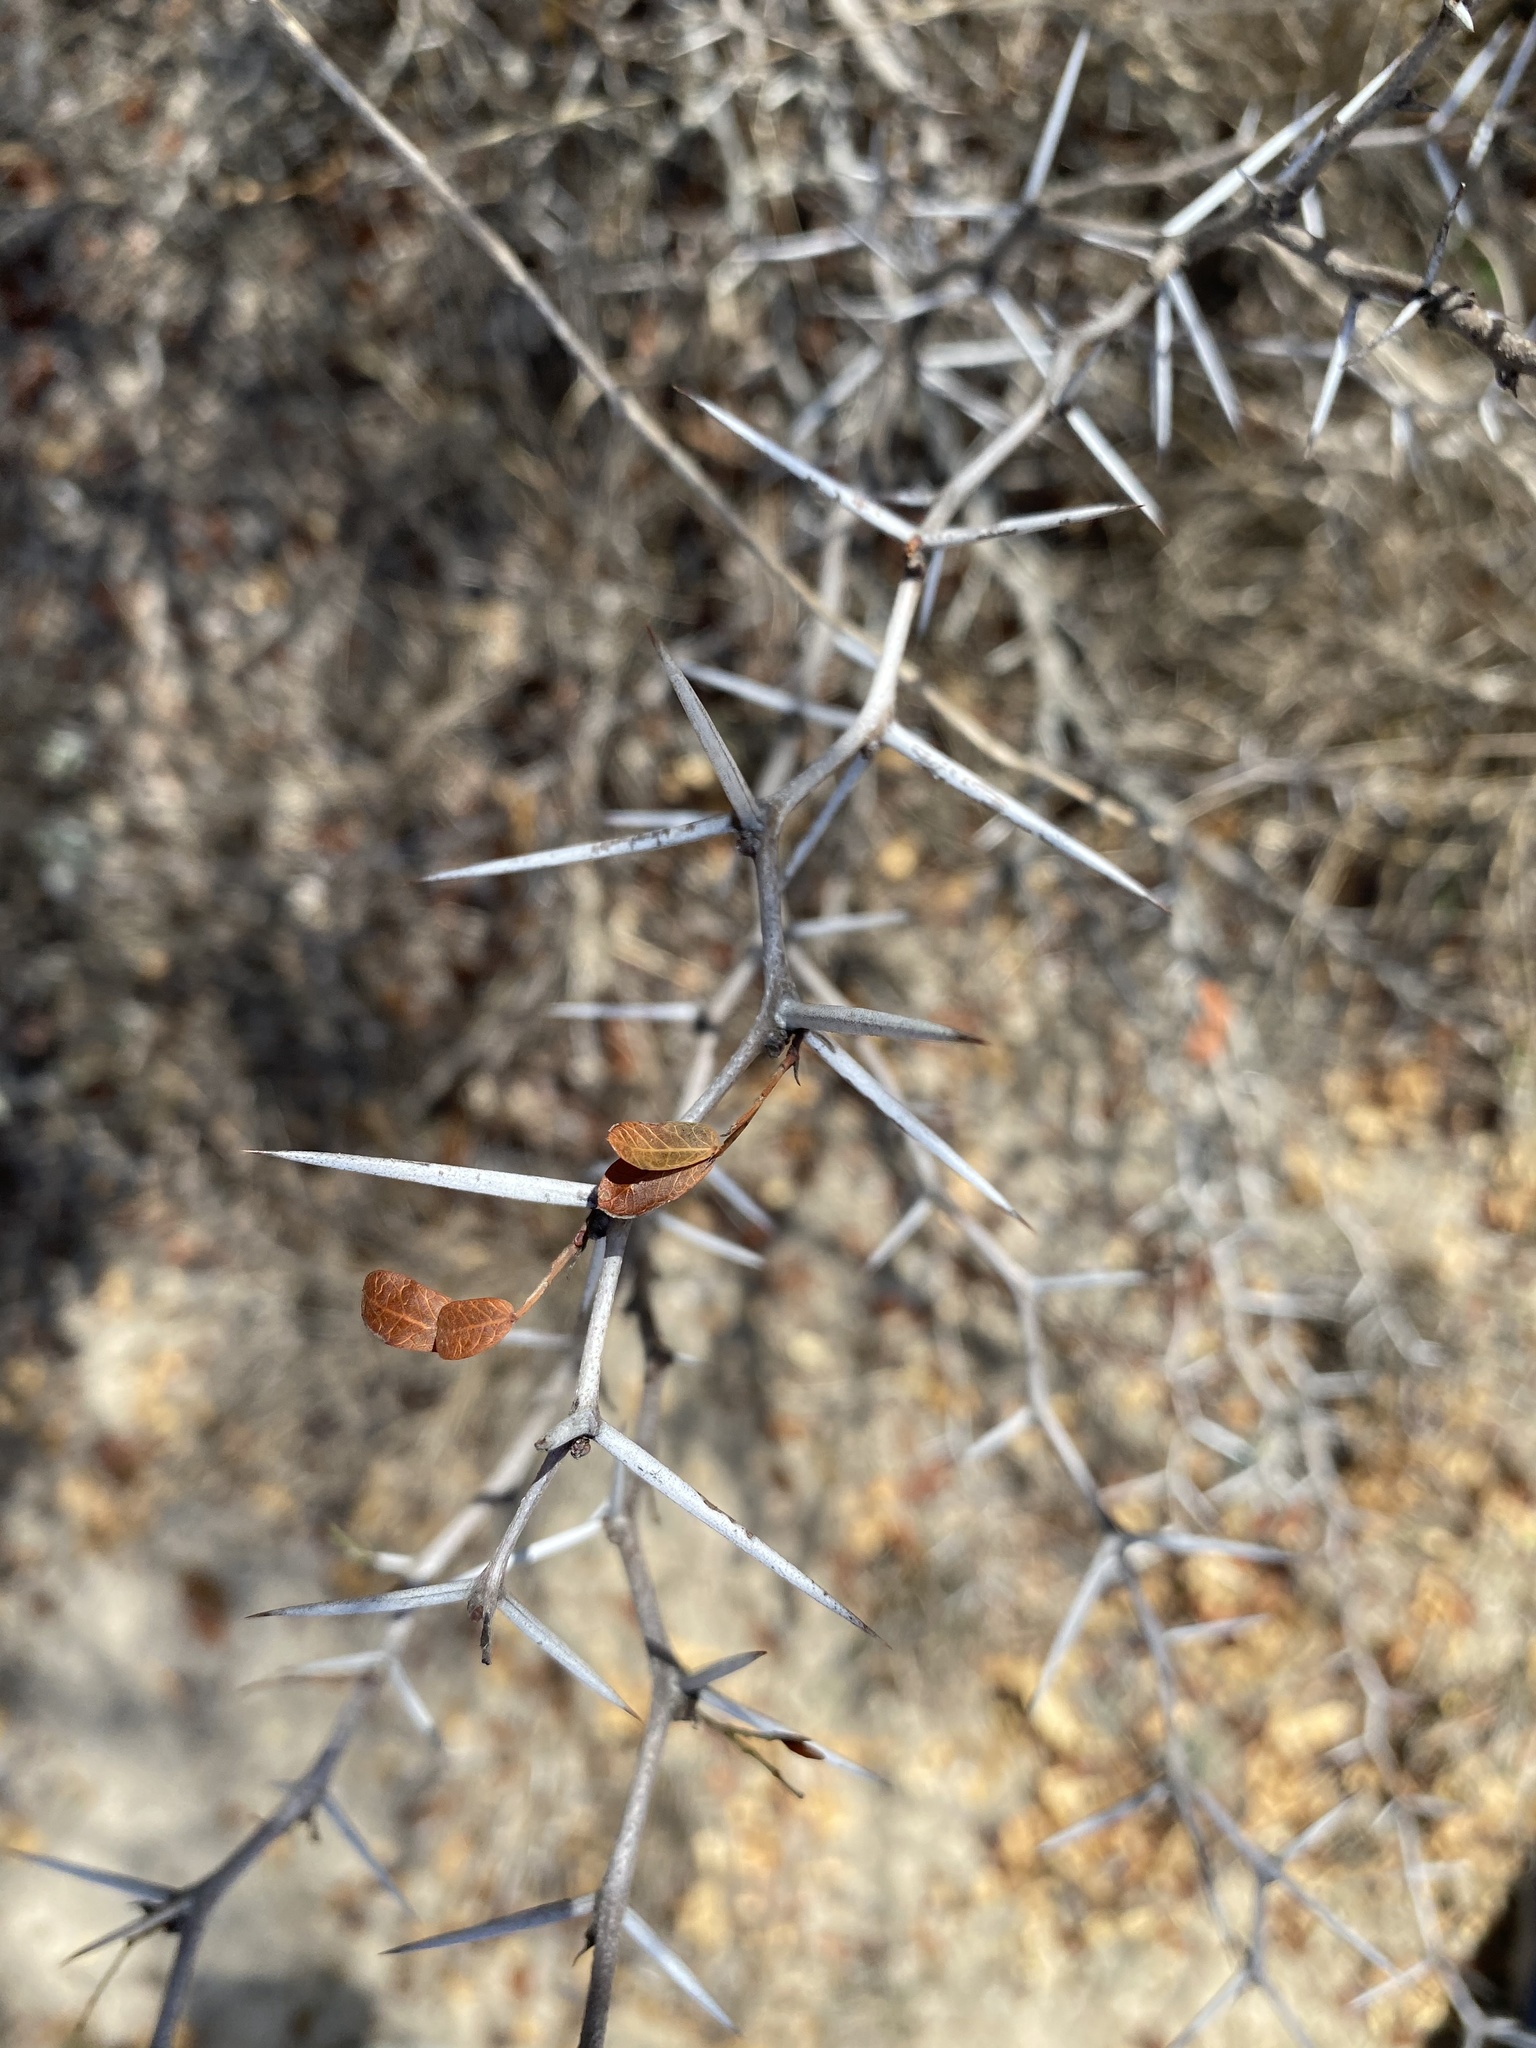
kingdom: Plantae
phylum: Tracheophyta
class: Magnoliopsida
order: Fabales
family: Fabaceae
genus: Vachellia
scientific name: Vachellia rigidula
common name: Blackbrush
